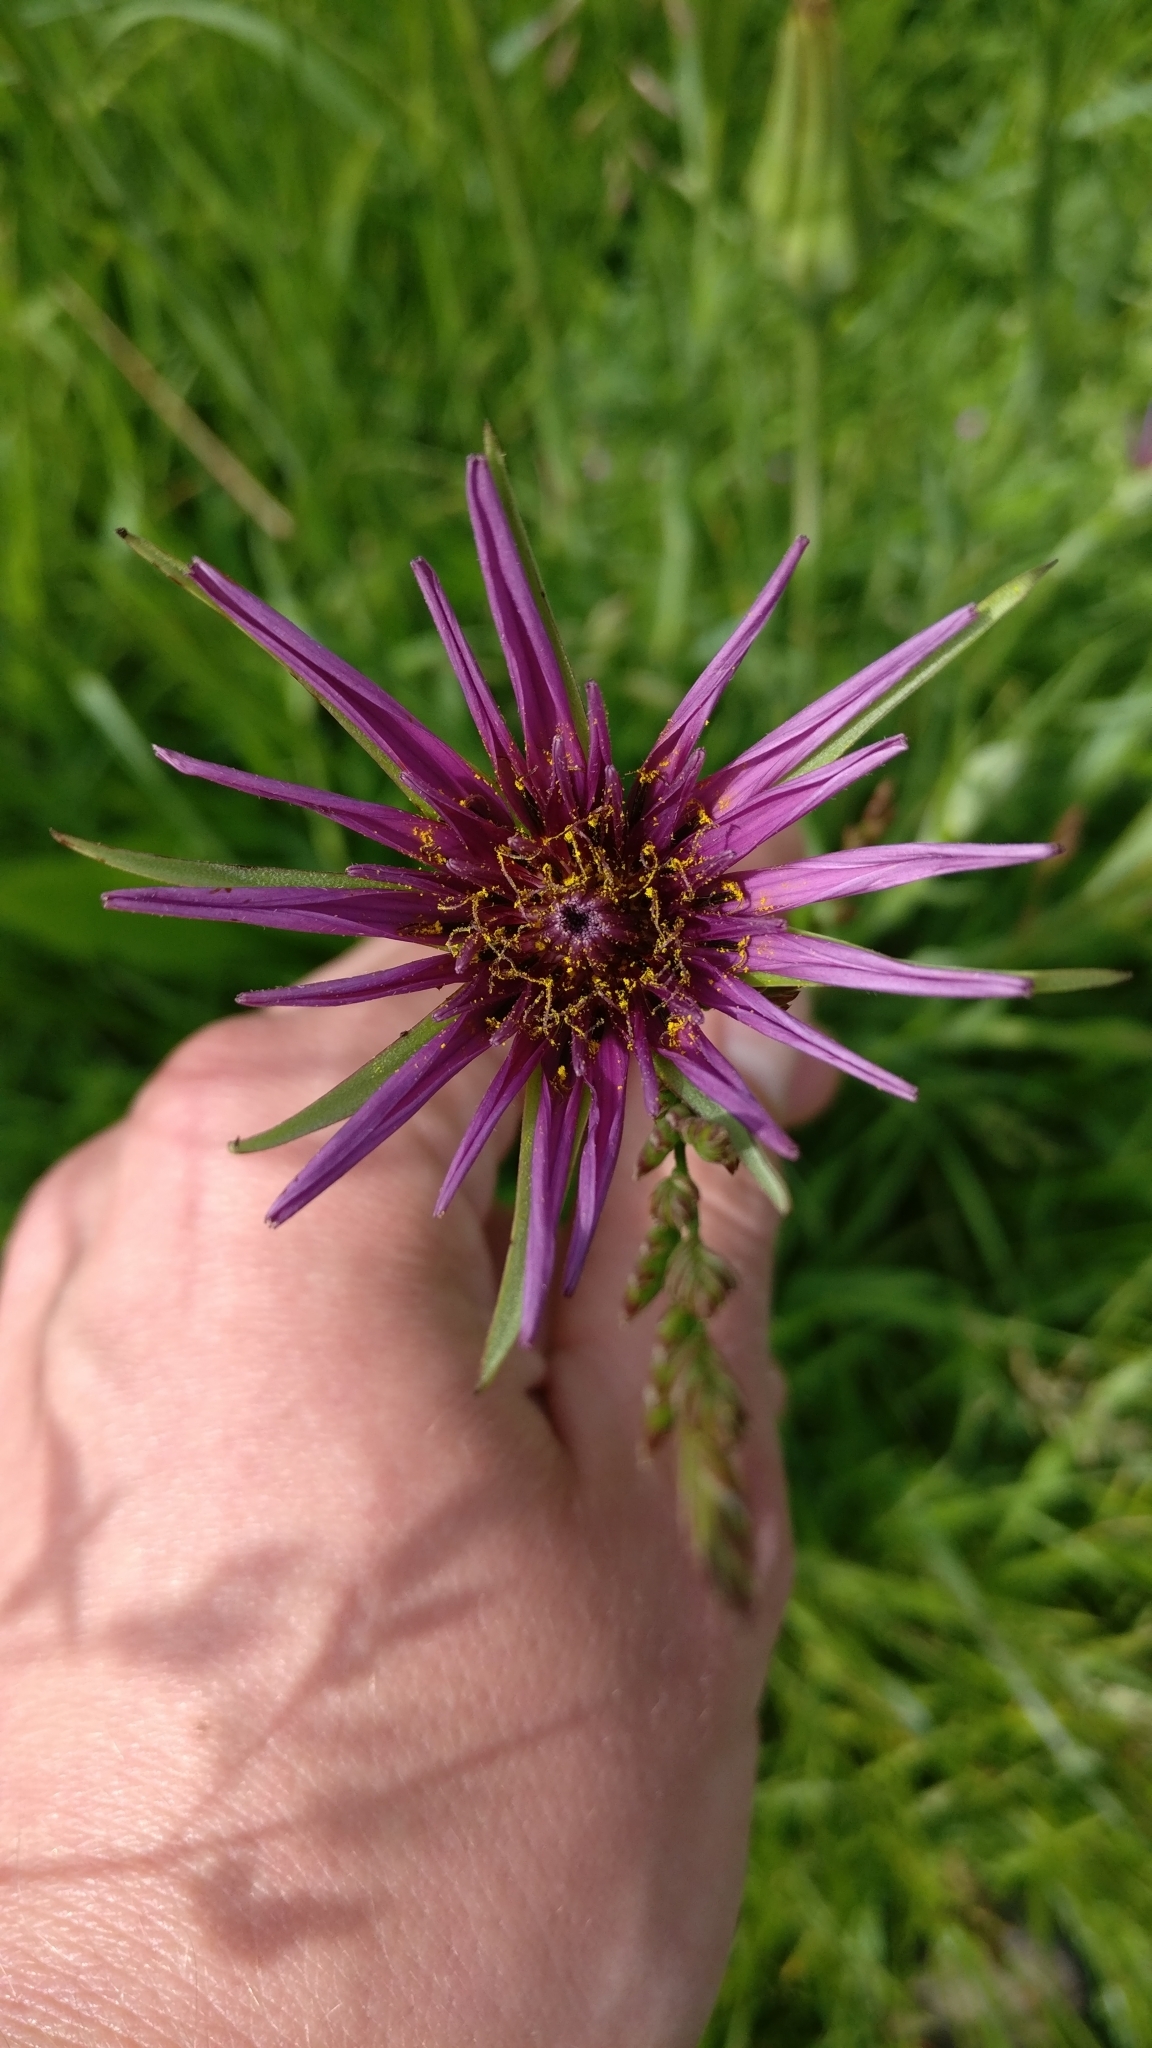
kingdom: Plantae
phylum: Tracheophyta
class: Magnoliopsida
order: Asterales
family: Asteraceae
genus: Tragopogon
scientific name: Tragopogon porrifolius
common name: Salsify
